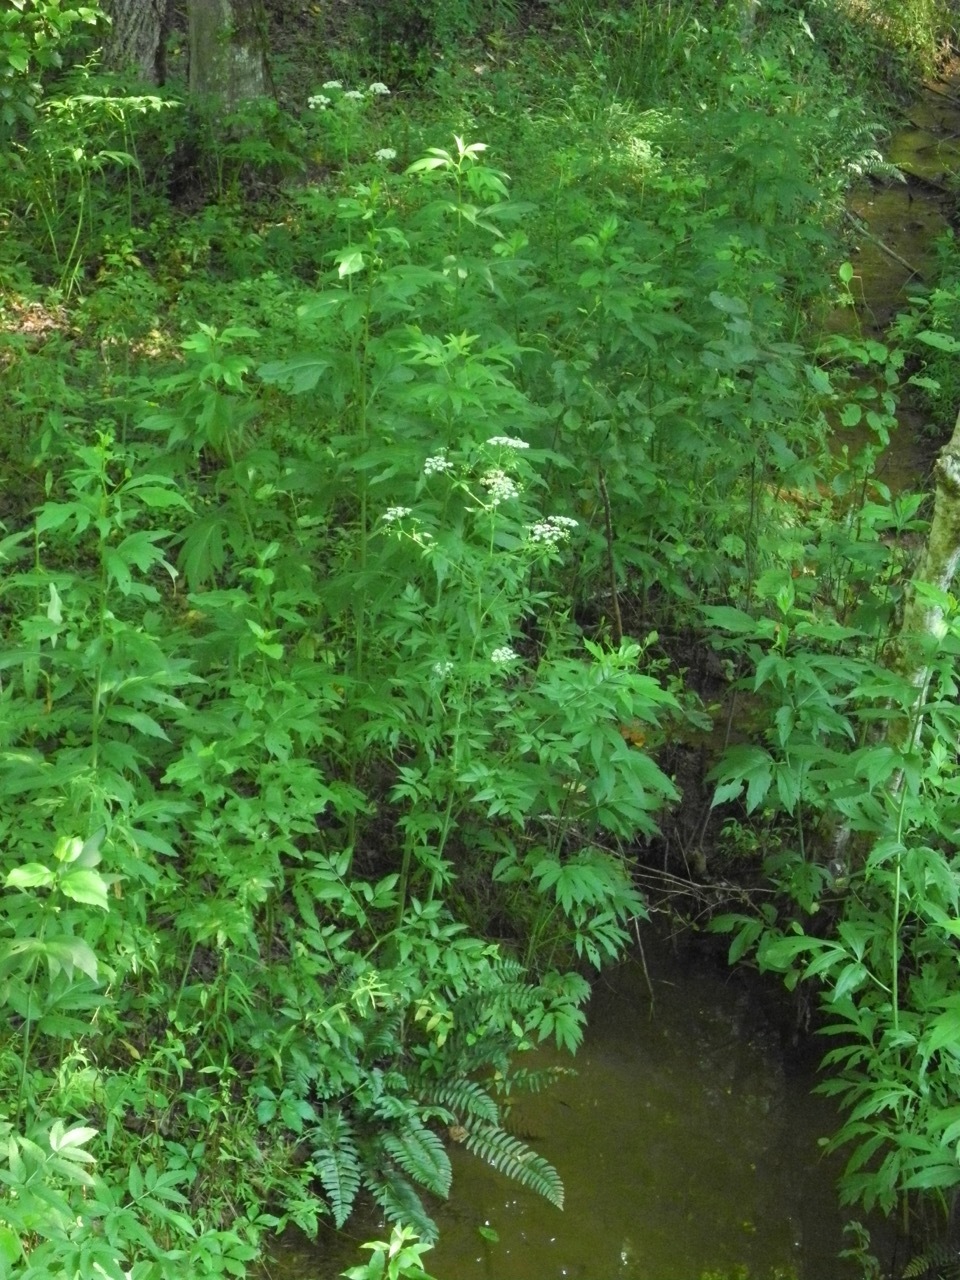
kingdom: Plantae
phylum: Tracheophyta
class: Magnoliopsida
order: Apiales
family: Apiaceae
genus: Cicuta
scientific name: Cicuta maculata
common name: Spotted cowbane
